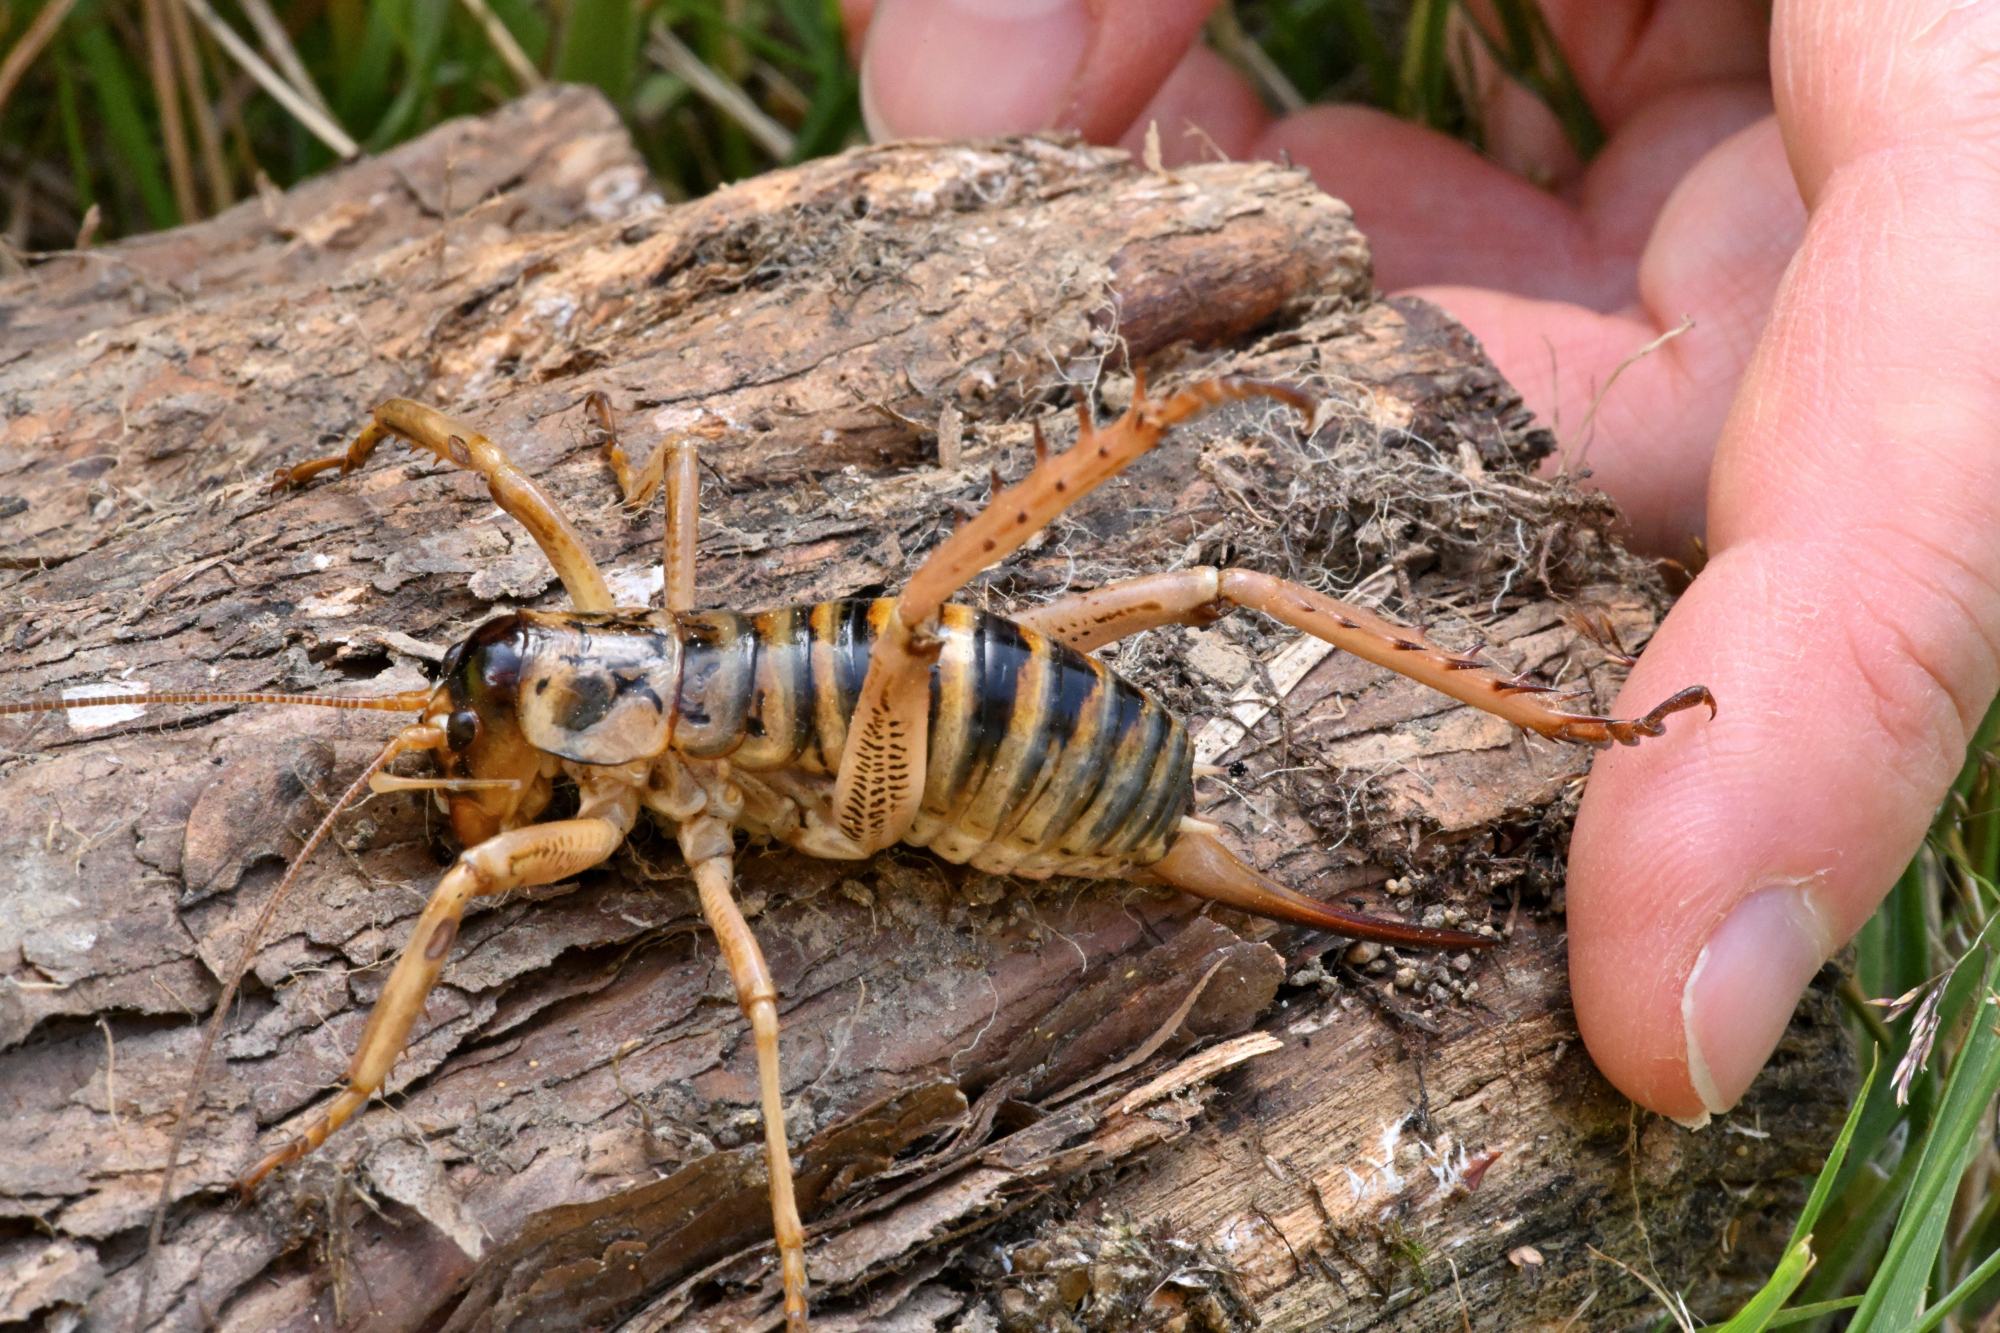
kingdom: Animalia
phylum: Arthropoda
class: Insecta
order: Orthoptera
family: Anostostomatidae
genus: Hemideina
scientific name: Hemideina femorata
